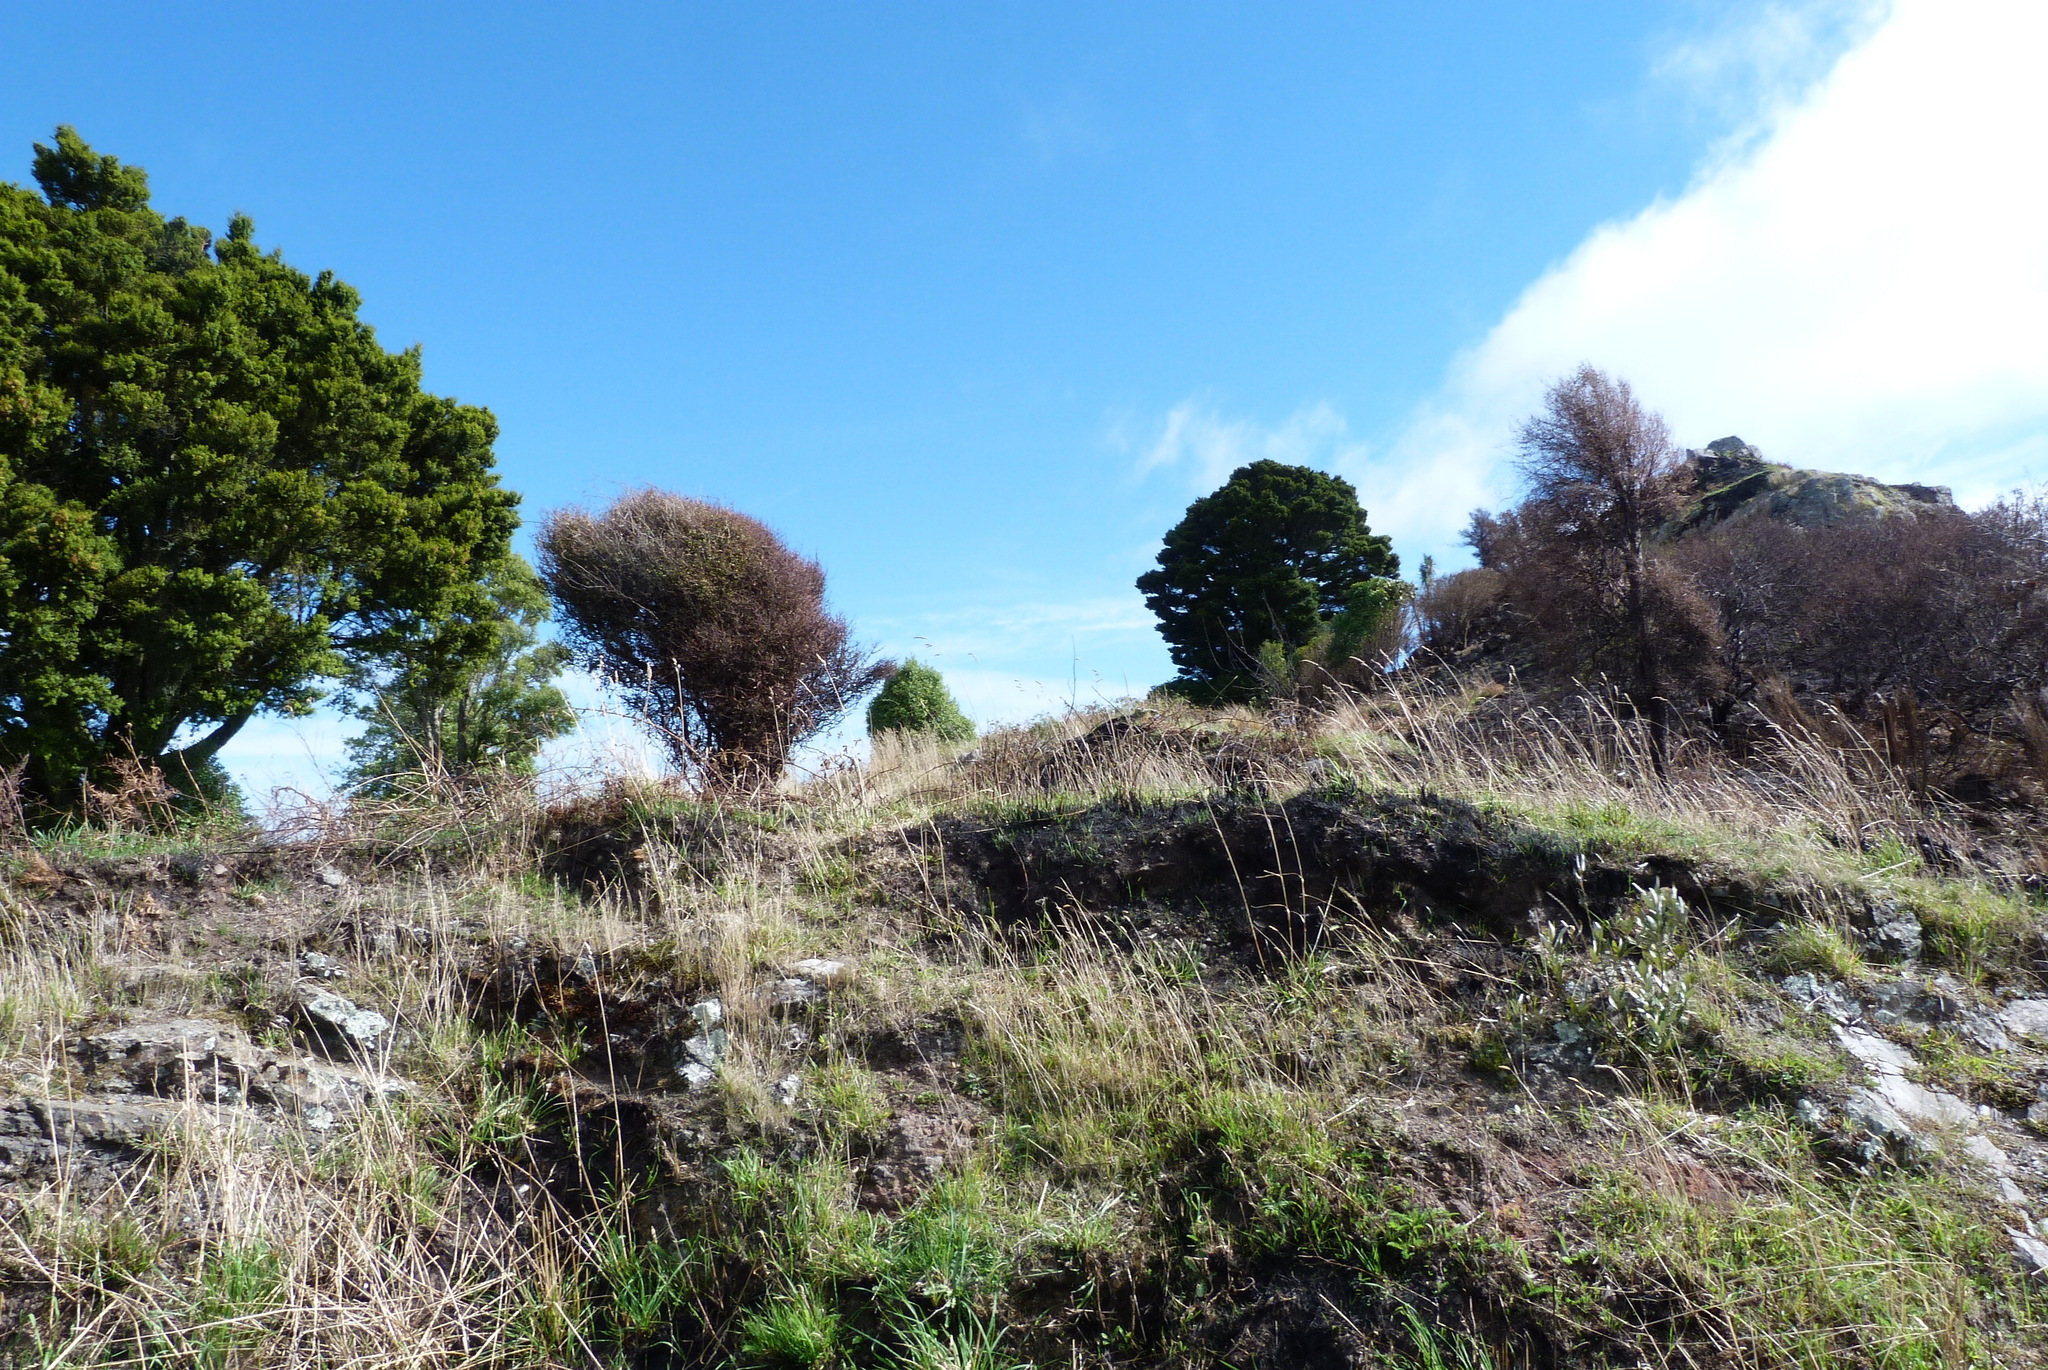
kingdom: Plantae
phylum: Tracheophyta
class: Pinopsida
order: Pinales
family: Podocarpaceae
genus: Podocarpus
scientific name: Podocarpus laetus
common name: Hall's totara
